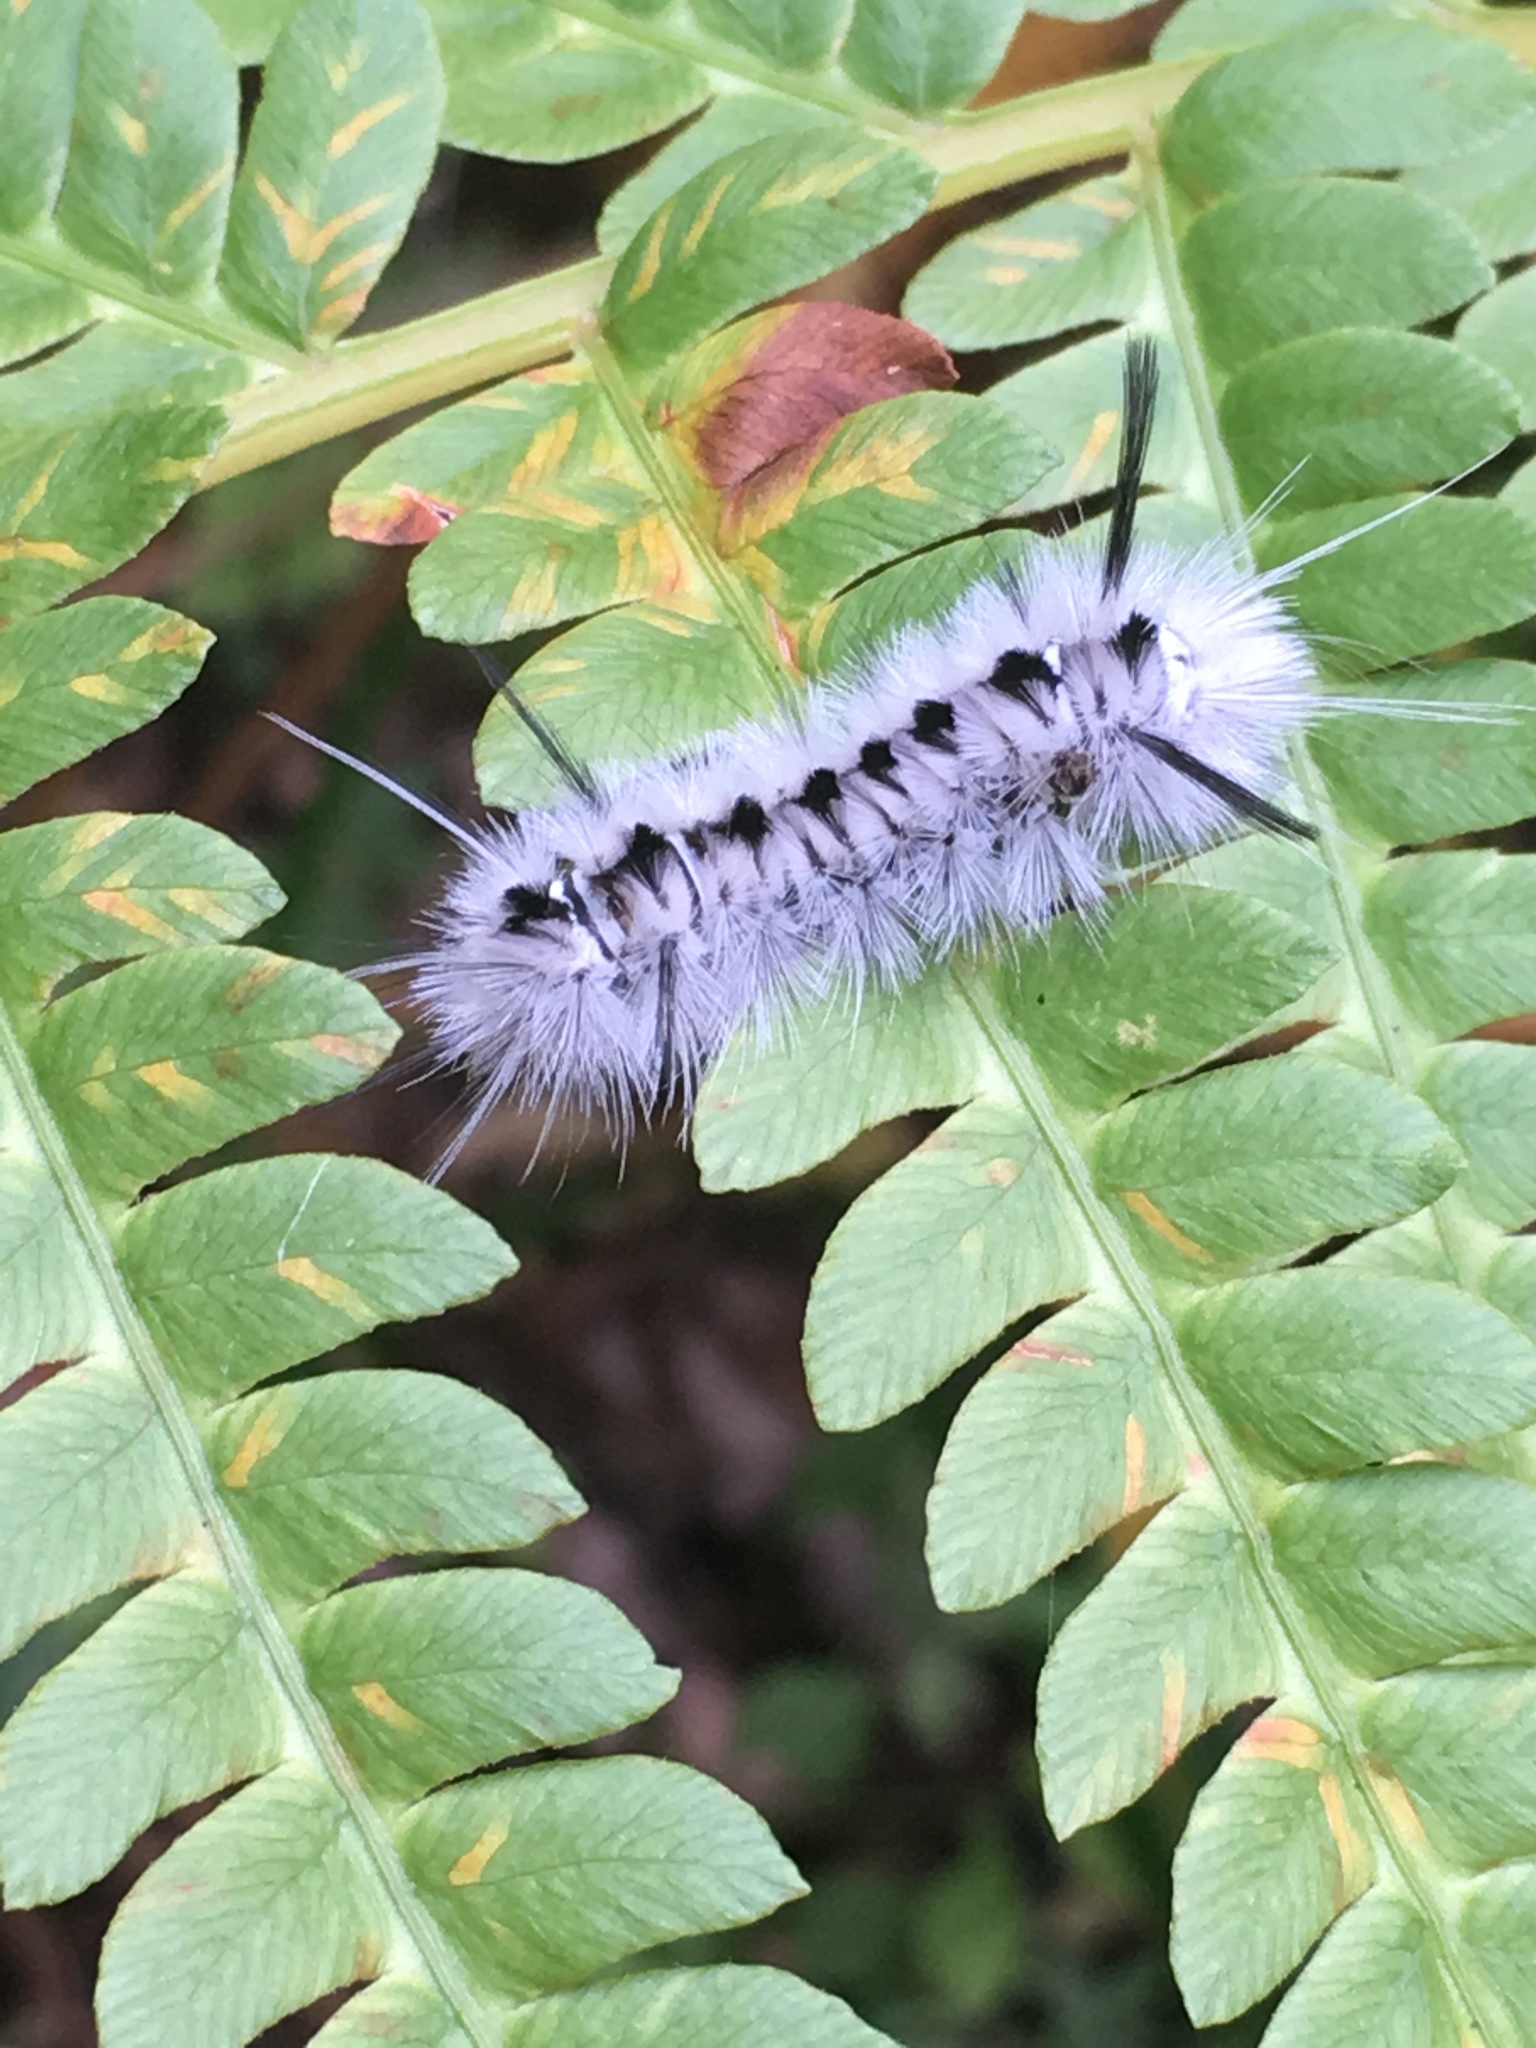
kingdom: Animalia
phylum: Arthropoda
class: Insecta
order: Lepidoptera
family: Erebidae
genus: Lophocampa
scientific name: Lophocampa caryae
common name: Hickory tussock moth
